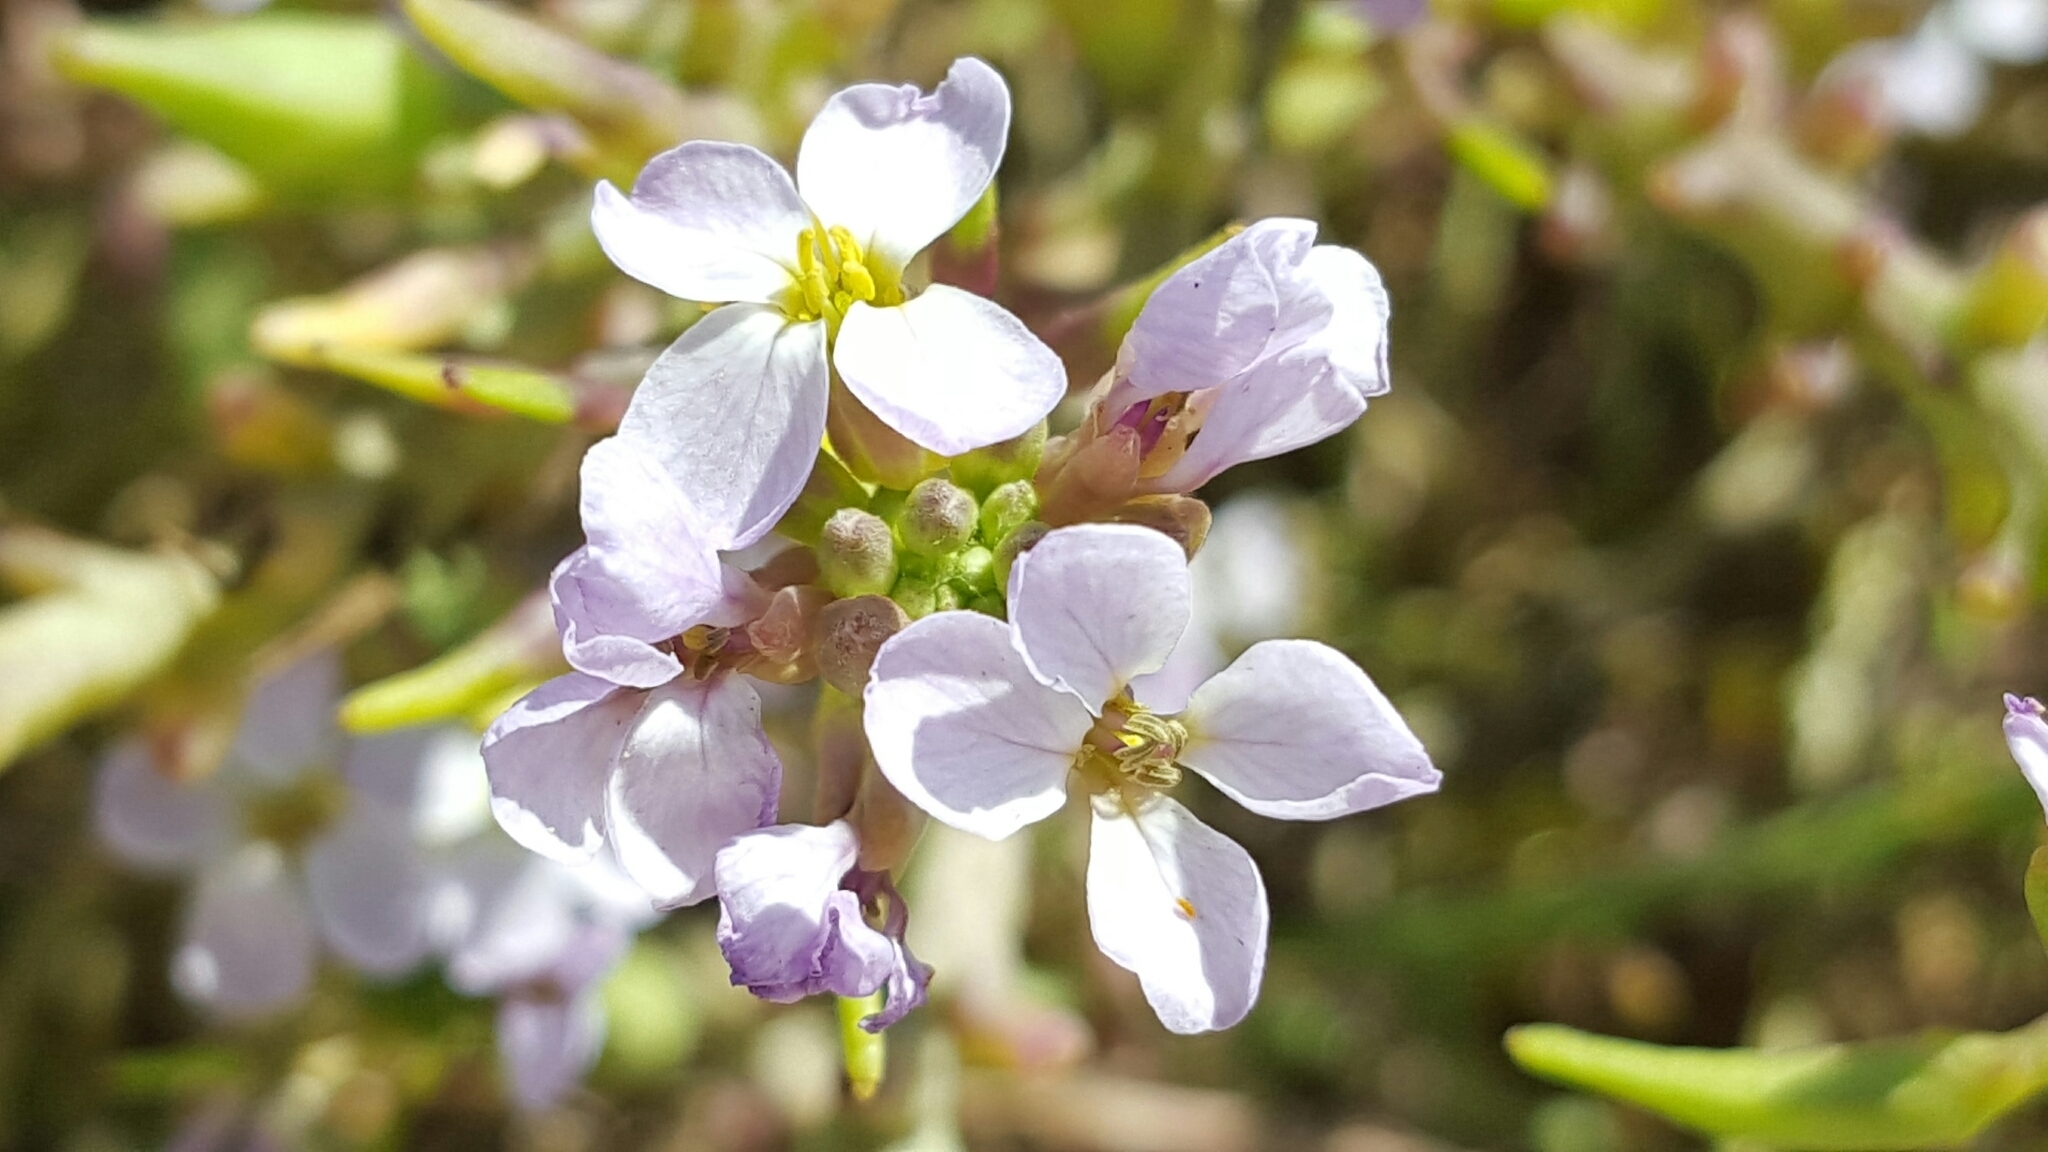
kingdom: Plantae
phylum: Tracheophyta
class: Magnoliopsida
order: Brassicales
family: Brassicaceae
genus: Cakile
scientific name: Cakile maritima
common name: Sea rocket
